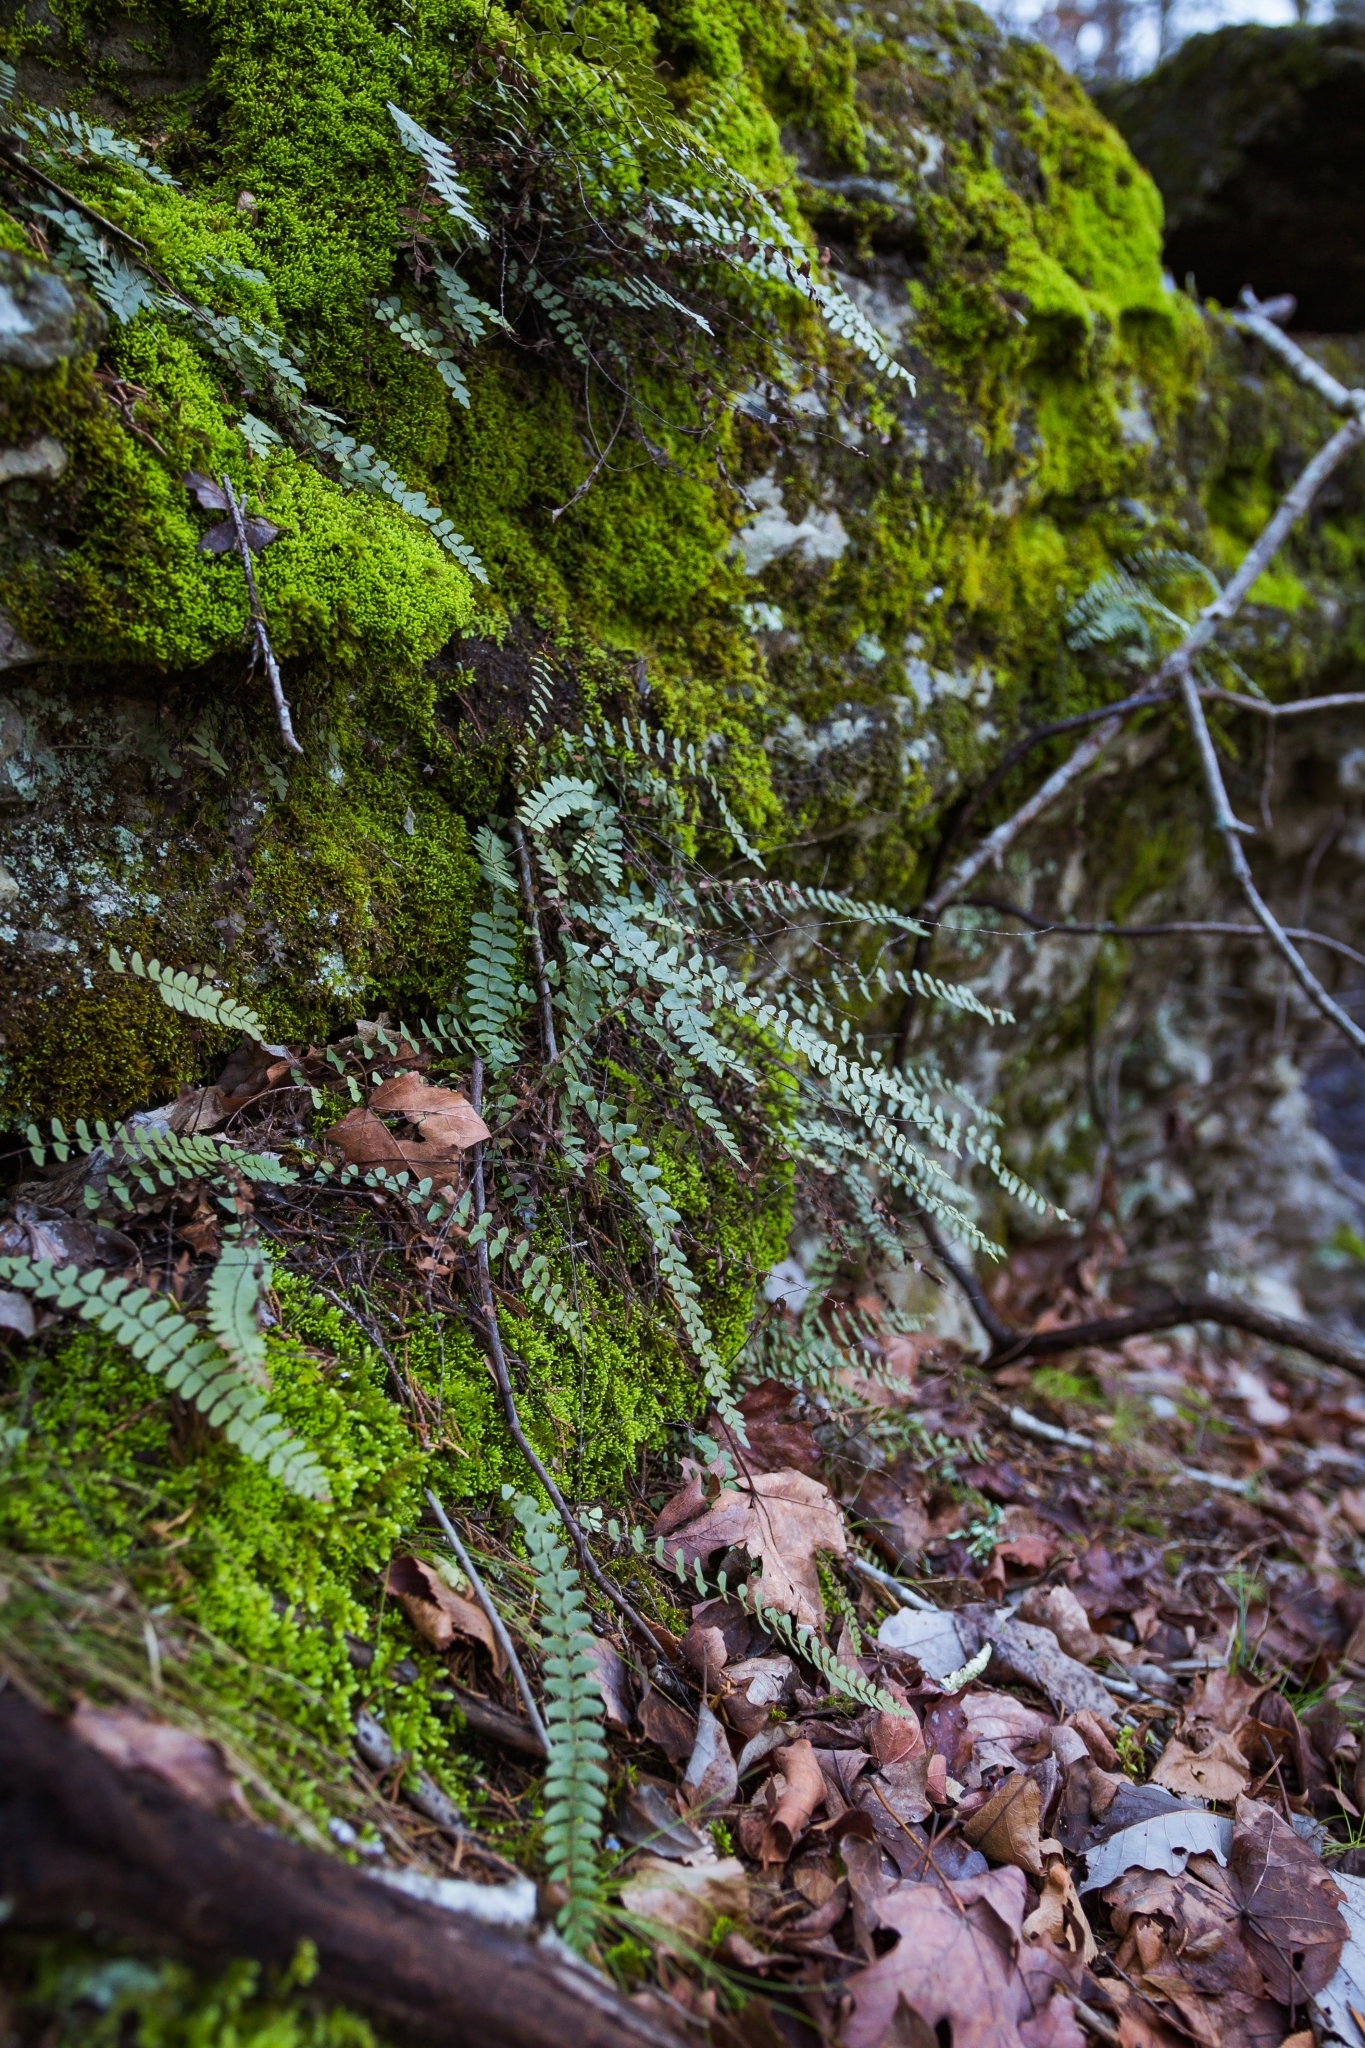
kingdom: Plantae
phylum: Tracheophyta
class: Polypodiopsida
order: Polypodiales
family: Aspleniaceae
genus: Asplenium
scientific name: Asplenium resiliens
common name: Blackstem spleenwort
